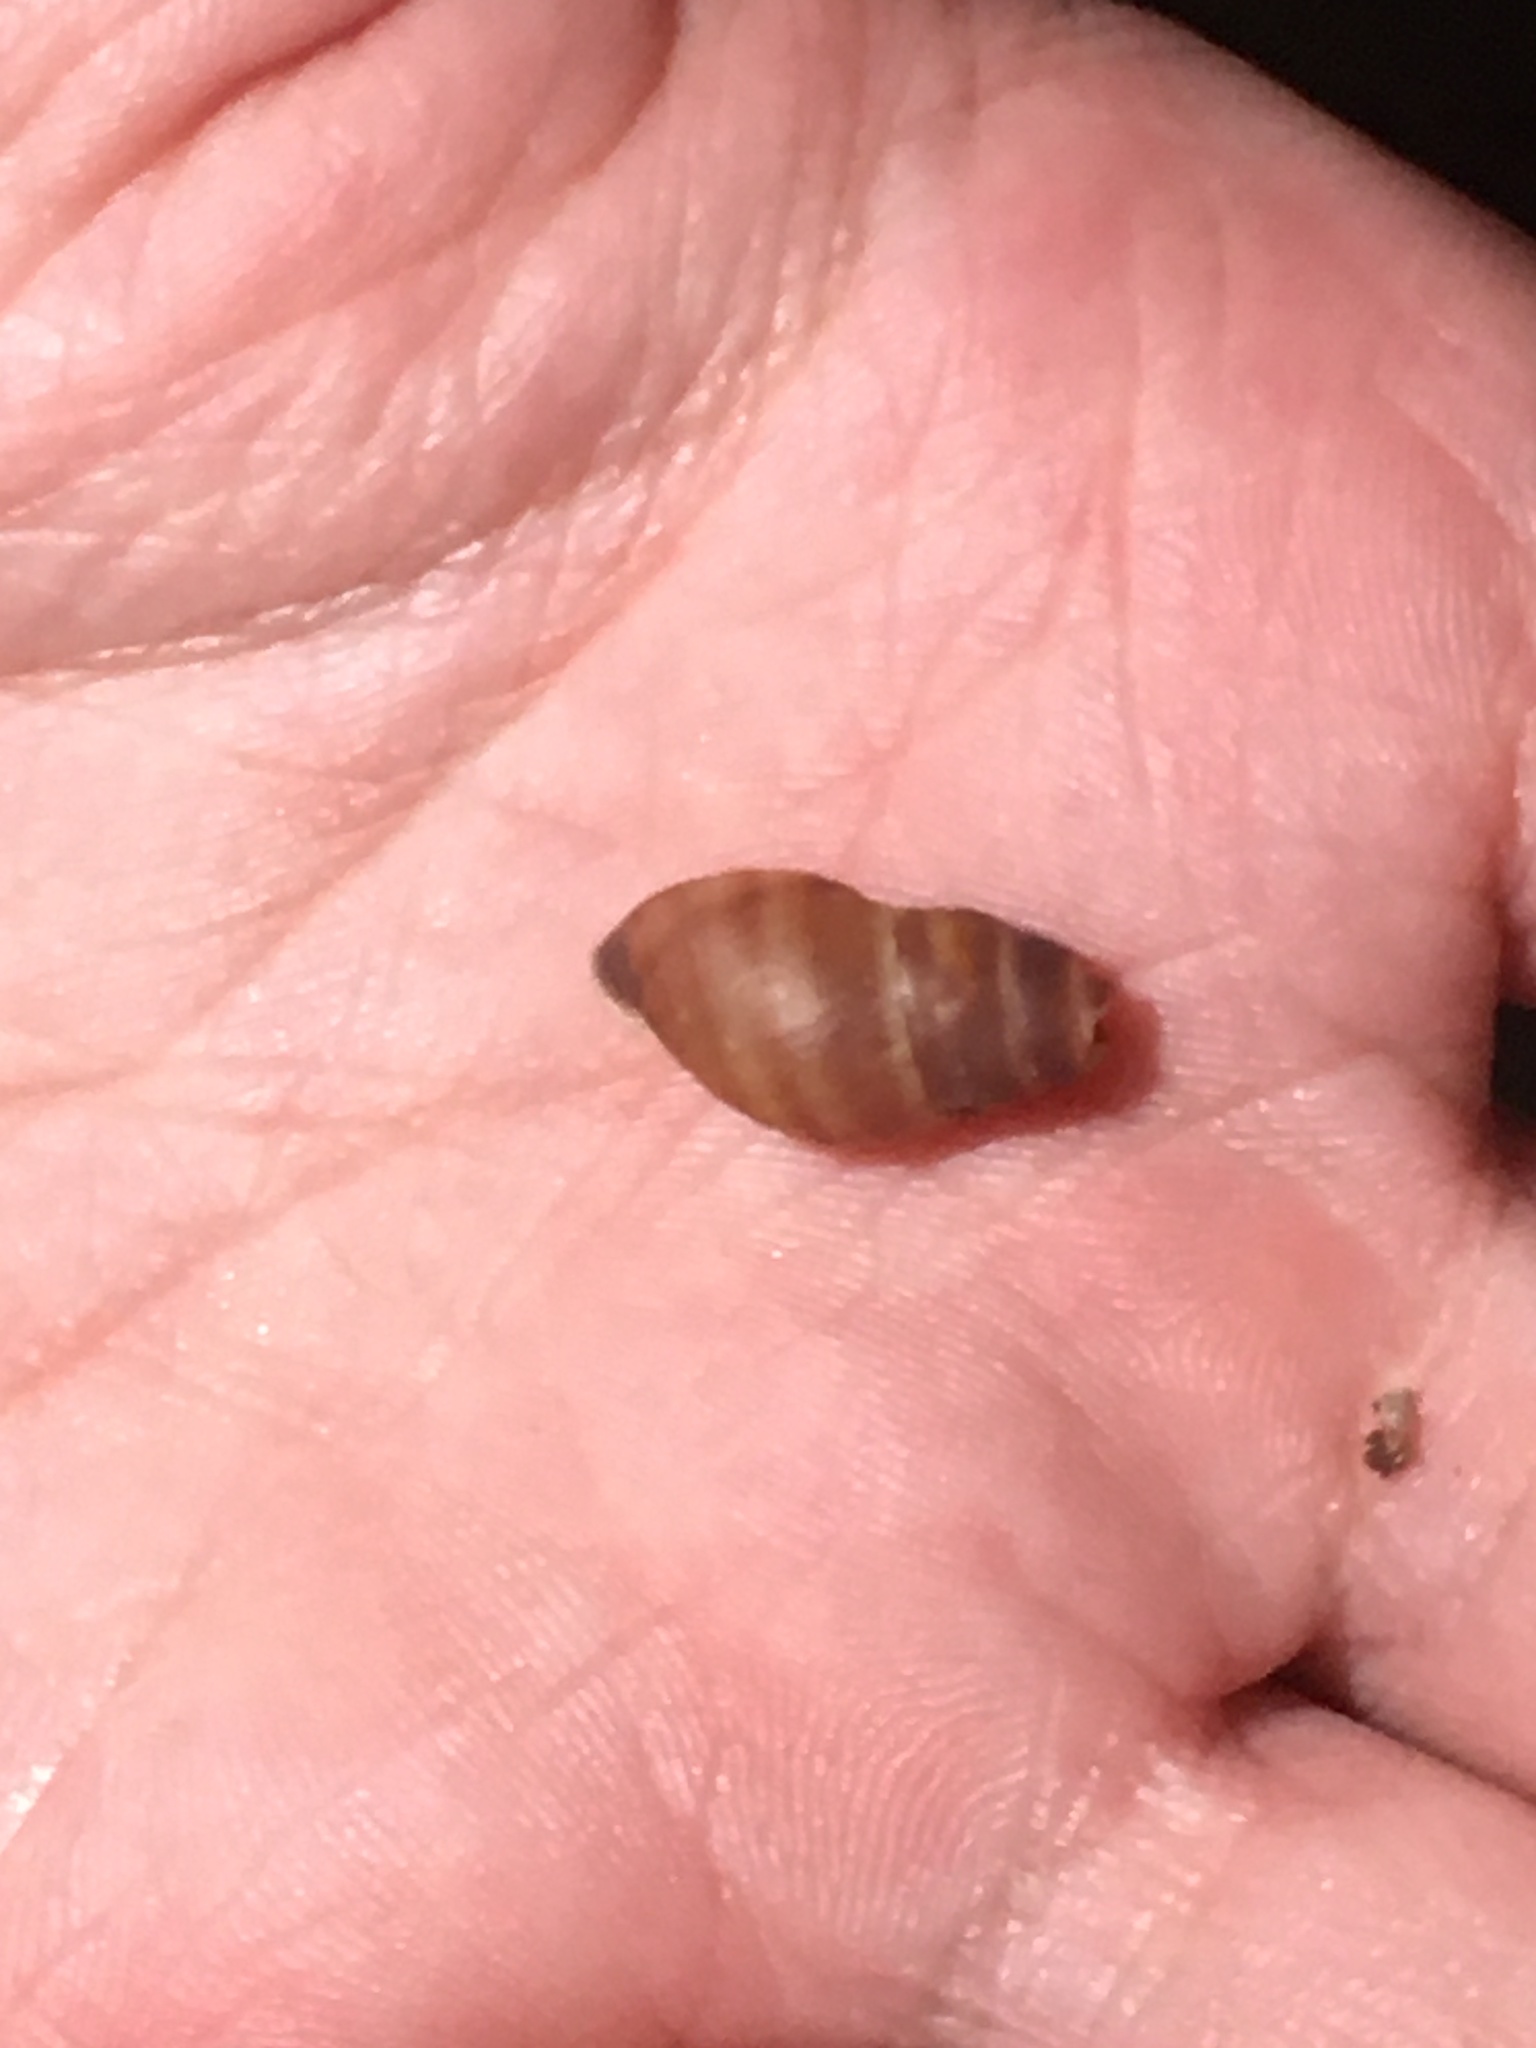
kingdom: Animalia
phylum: Mollusca
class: Gastropoda
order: Stylommatophora
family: Bulimulidae
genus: Bulimulus
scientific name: Bulimulus guadalupensis
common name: West indian bulimulus
